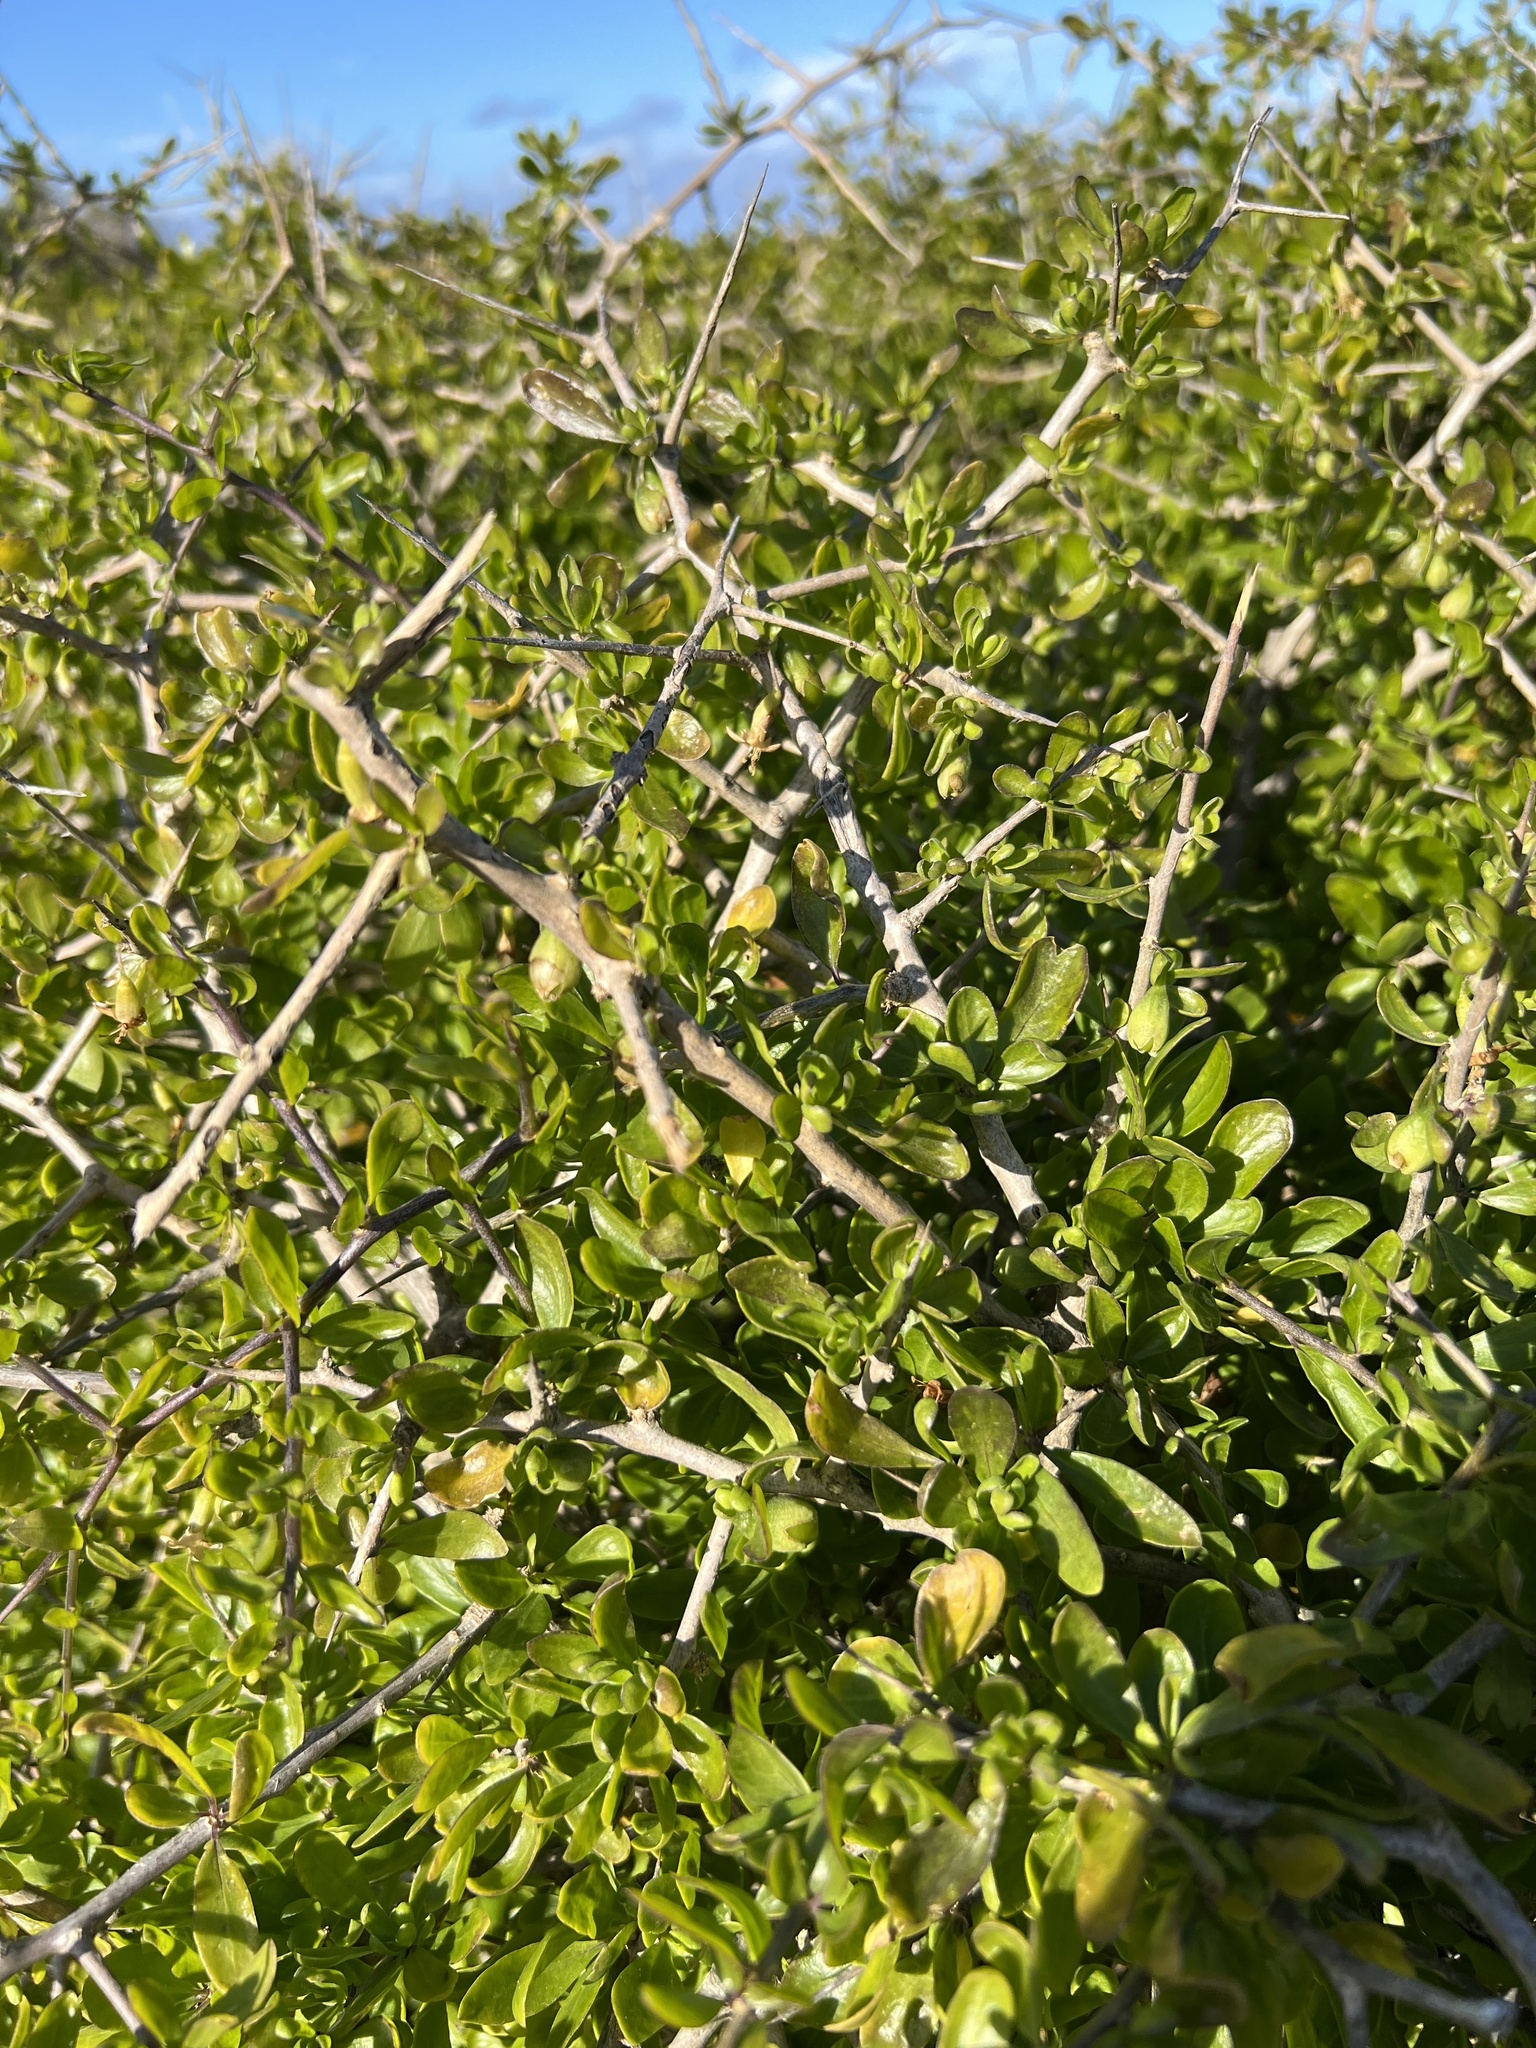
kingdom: Plantae
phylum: Tracheophyta
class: Magnoliopsida
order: Solanales
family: Solanaceae
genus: Lycium
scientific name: Lycium ferocissimum
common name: African boxthorn
